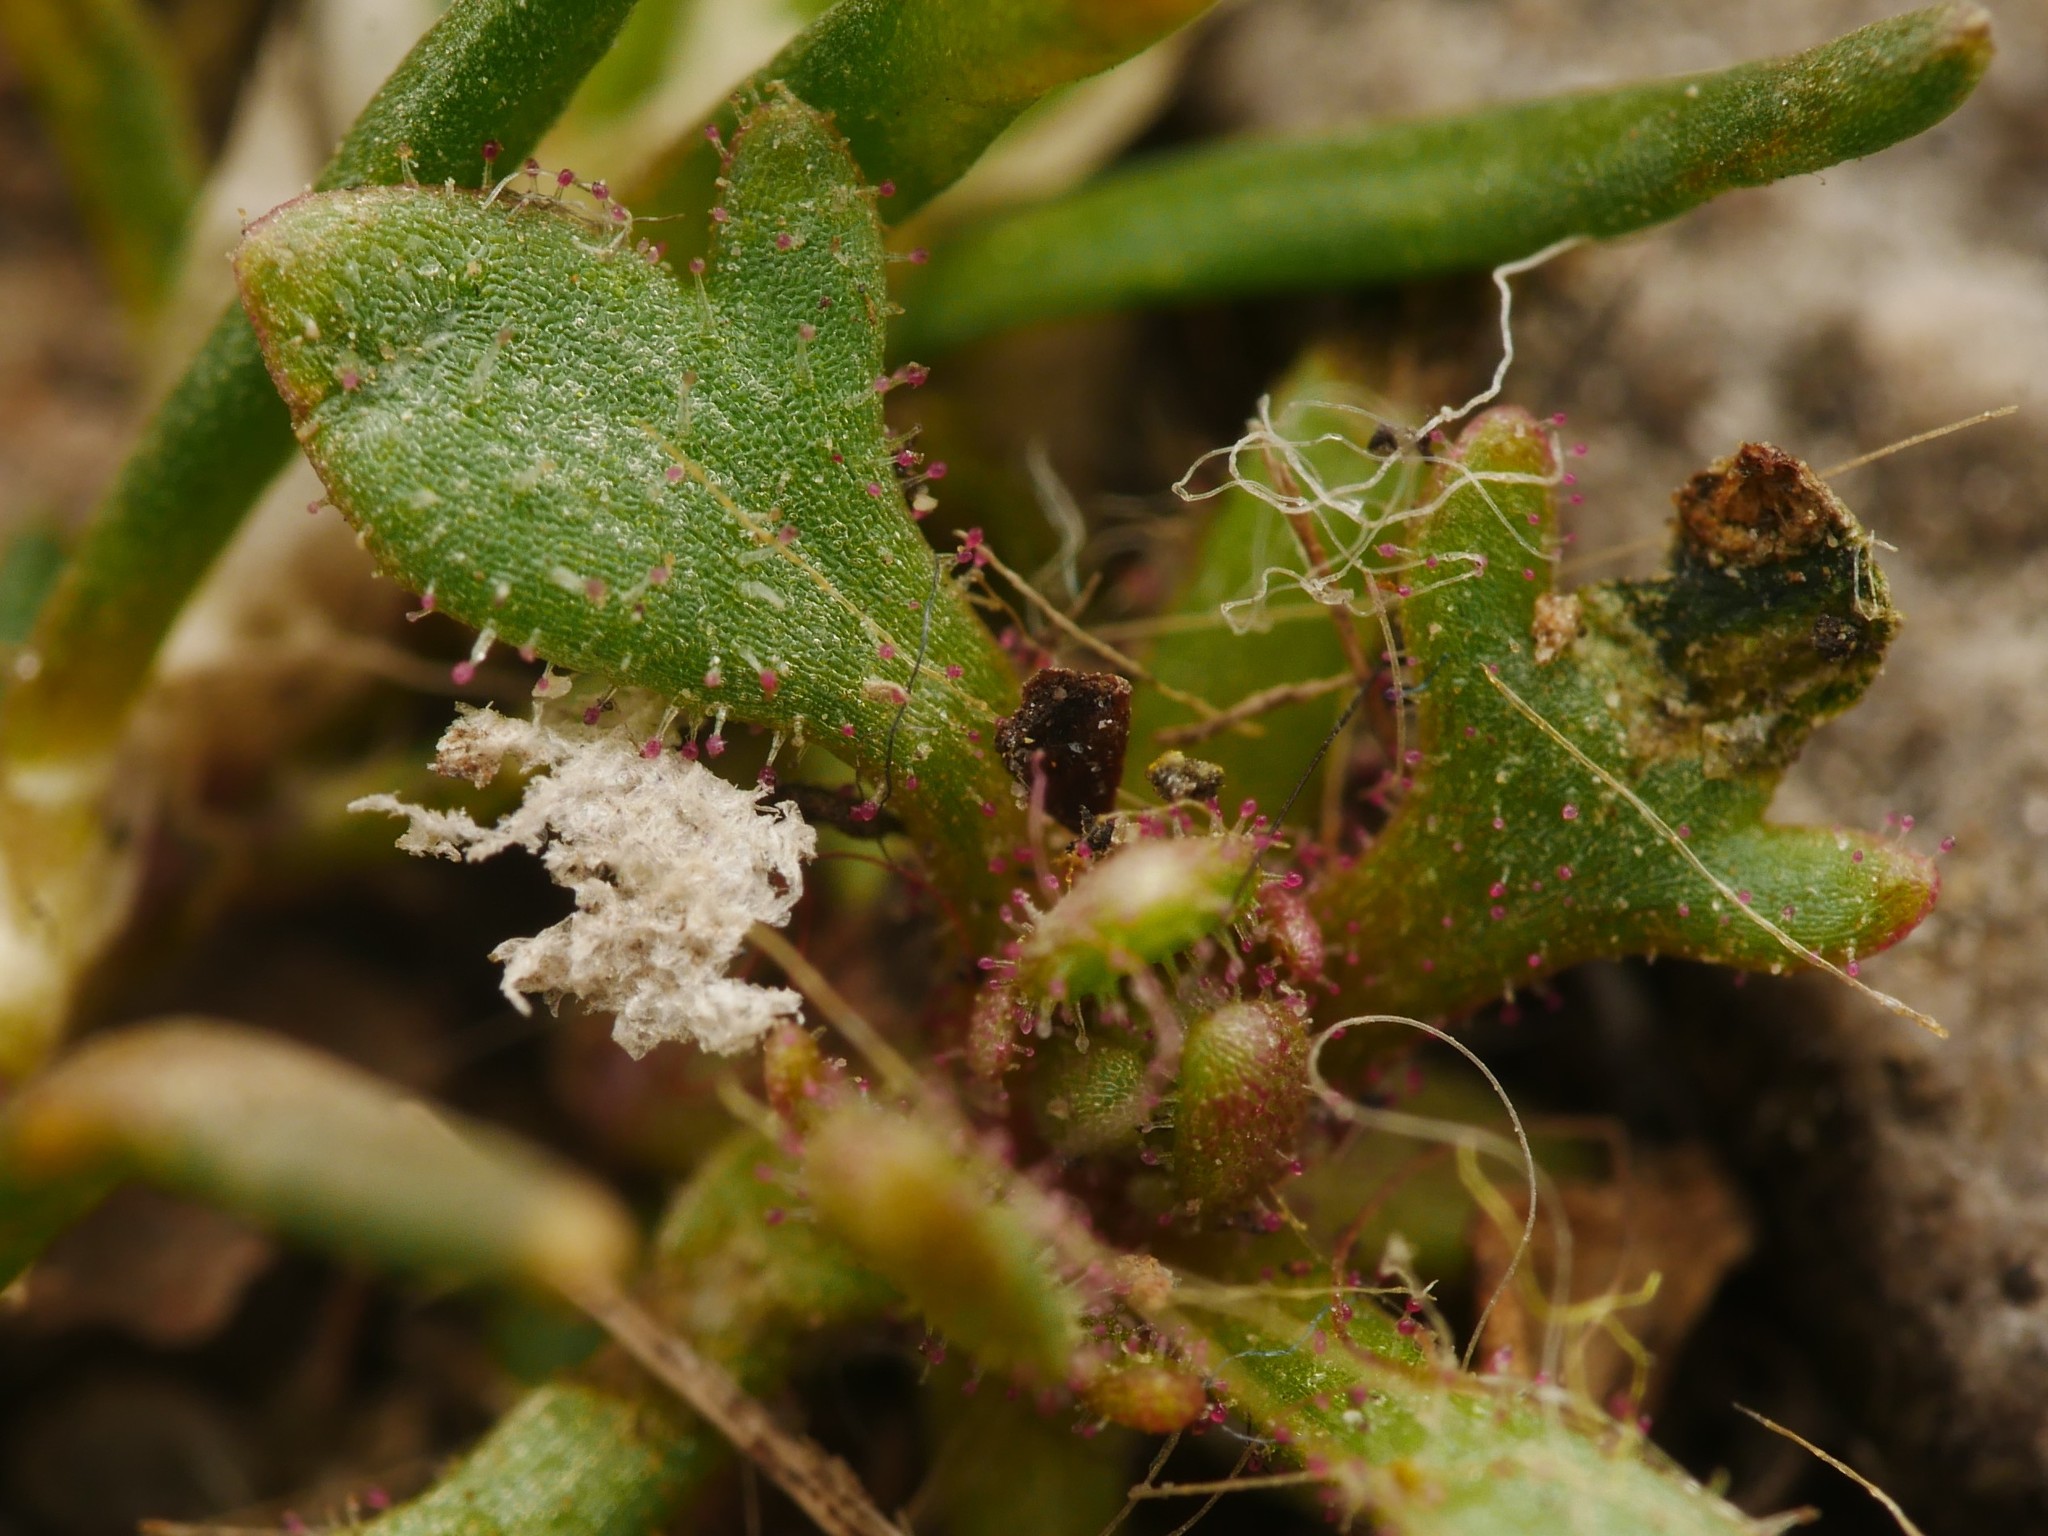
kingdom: Plantae
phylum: Tracheophyta
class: Magnoliopsida
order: Saxifragales
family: Saxifragaceae
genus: Saxifraga
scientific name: Saxifraga tridactylites
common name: Rue-leaved saxifrage
